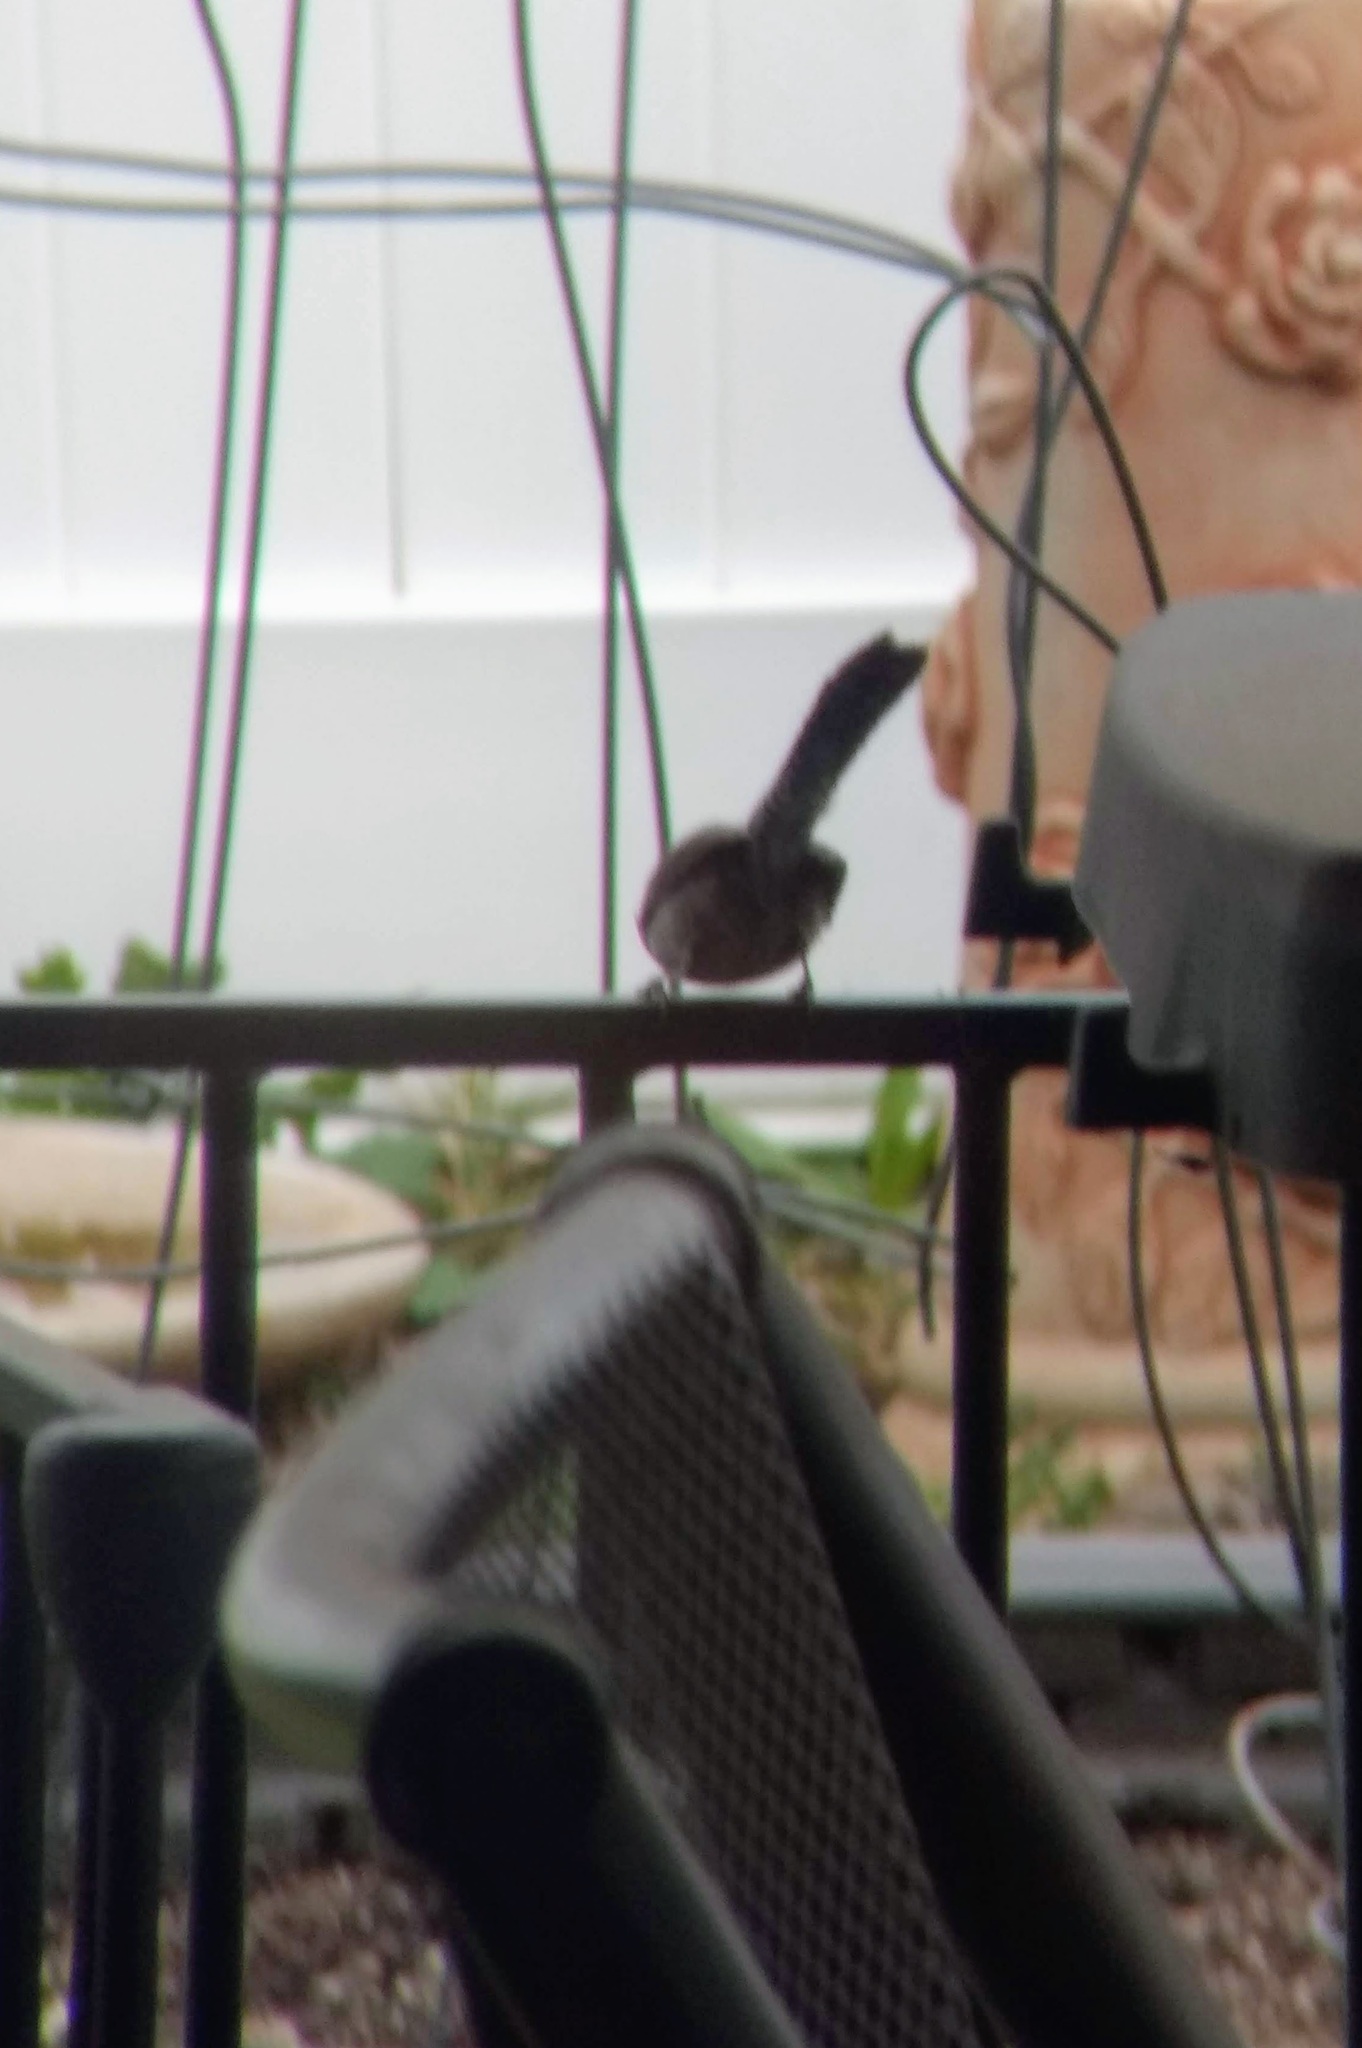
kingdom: Animalia
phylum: Chordata
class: Aves
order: Passeriformes
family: Troglodytidae
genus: Thryomanes
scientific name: Thryomanes bewickii
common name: Bewick's wren
